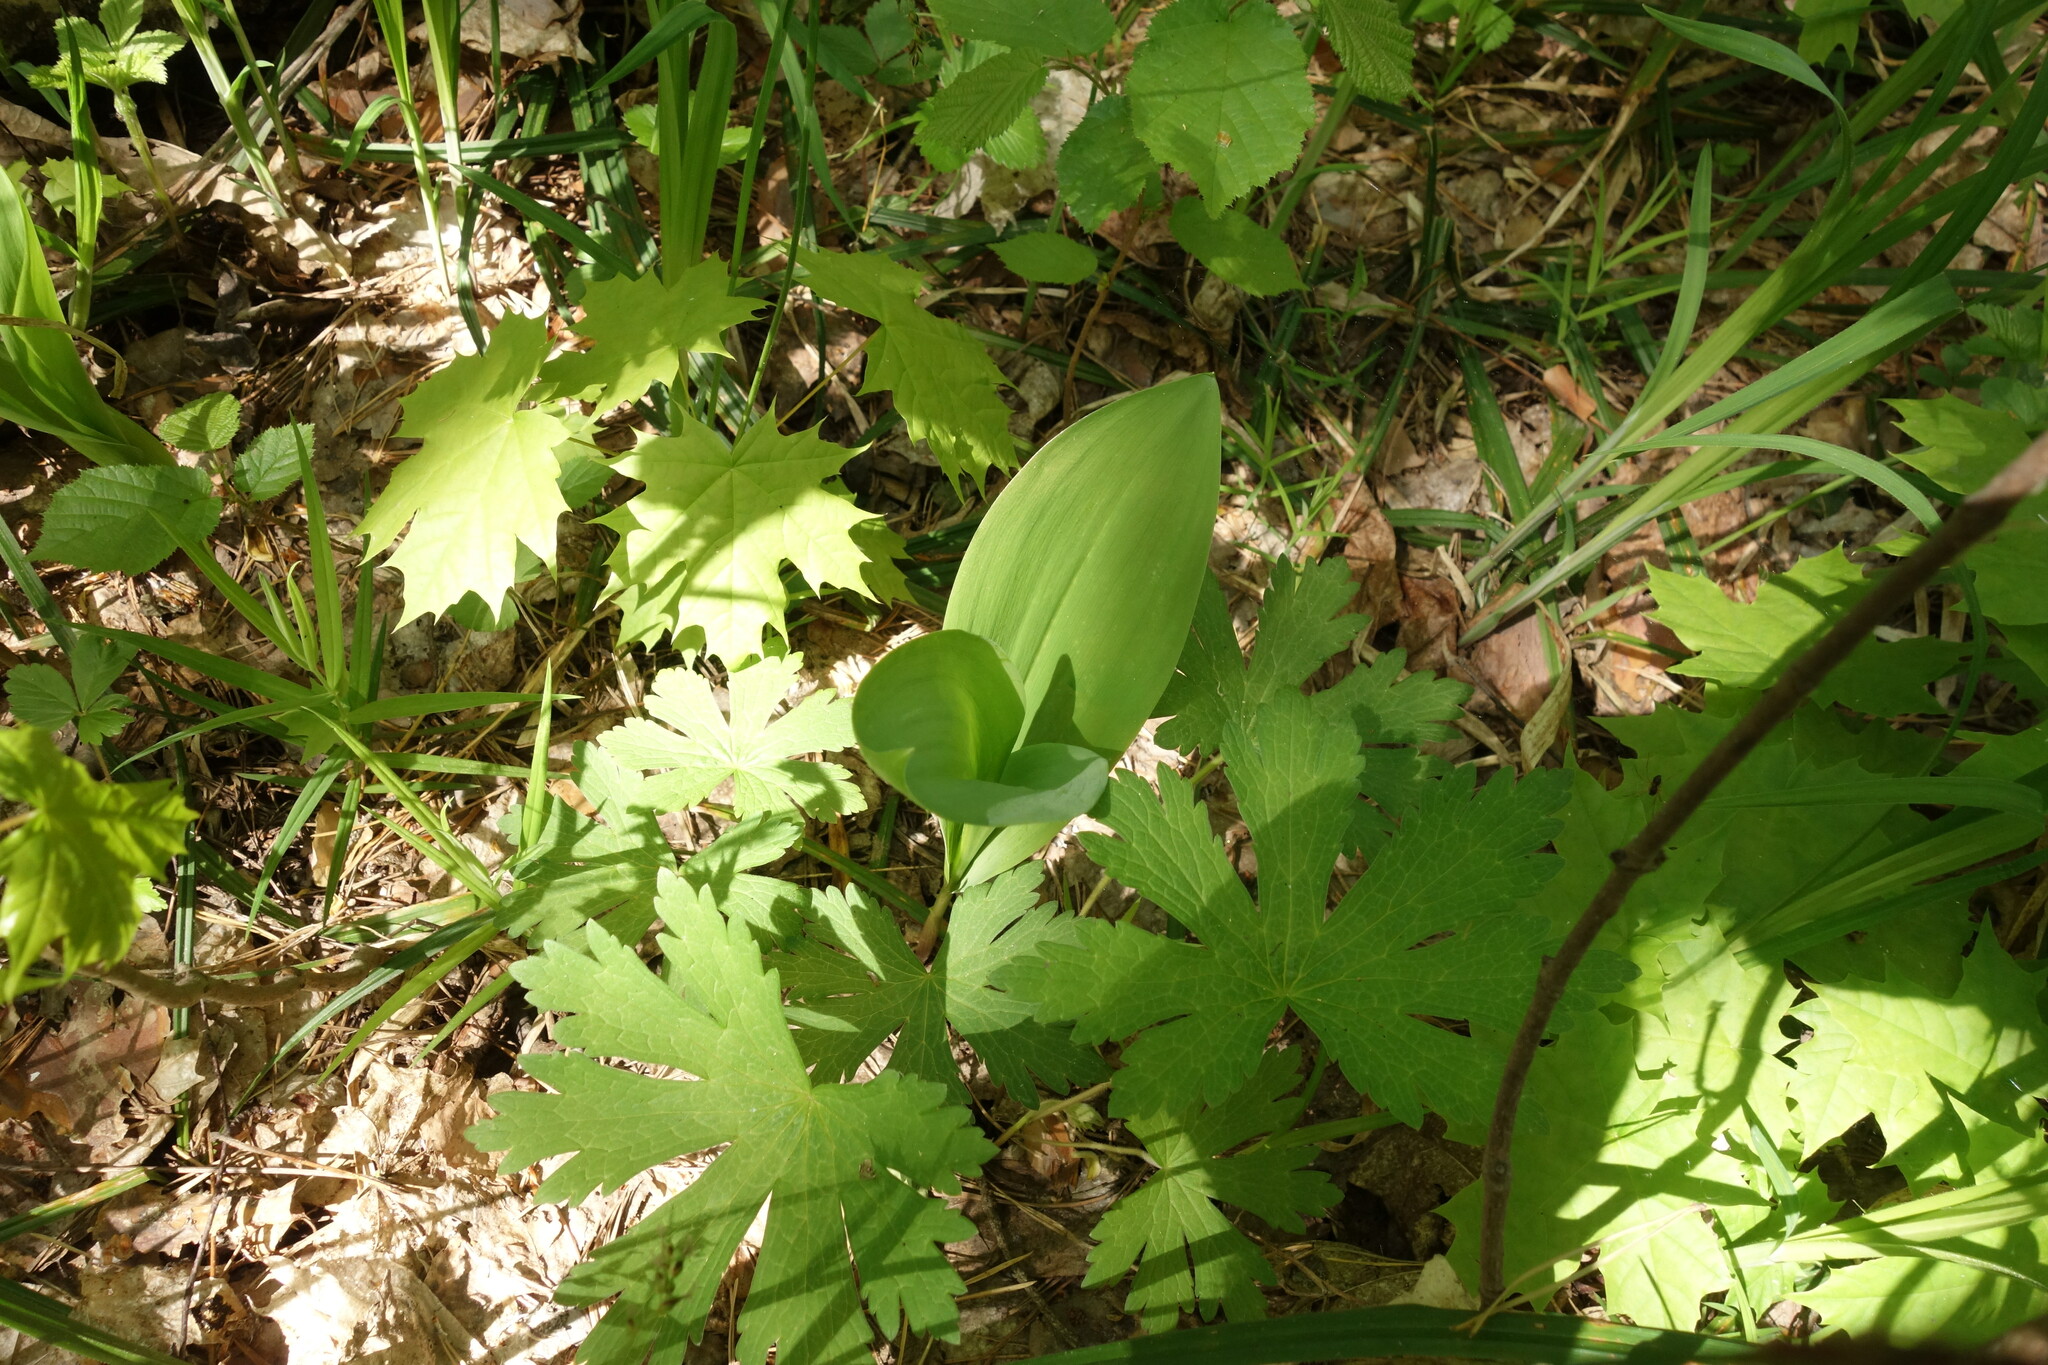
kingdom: Plantae
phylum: Tracheophyta
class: Liliopsida
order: Asparagales
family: Asparagaceae
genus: Convallaria
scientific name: Convallaria majalis
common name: Lily-of-the-valley
